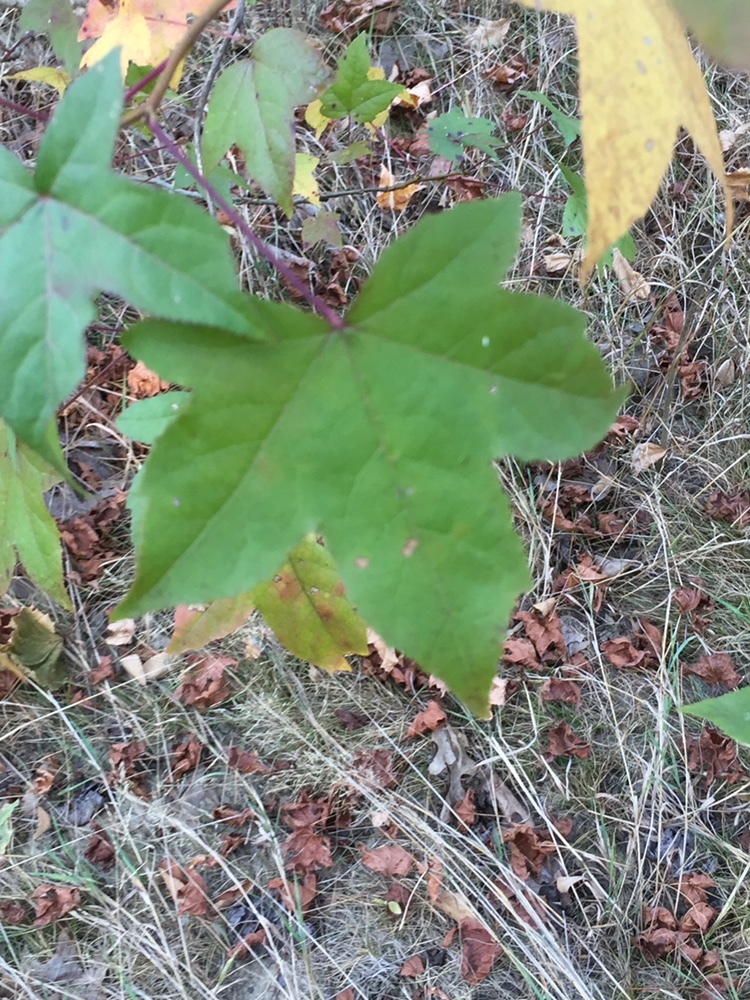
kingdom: Plantae
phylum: Tracheophyta
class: Magnoliopsida
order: Saxifragales
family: Altingiaceae
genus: Liquidambar
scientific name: Liquidambar styraciflua
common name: Sweet gum
